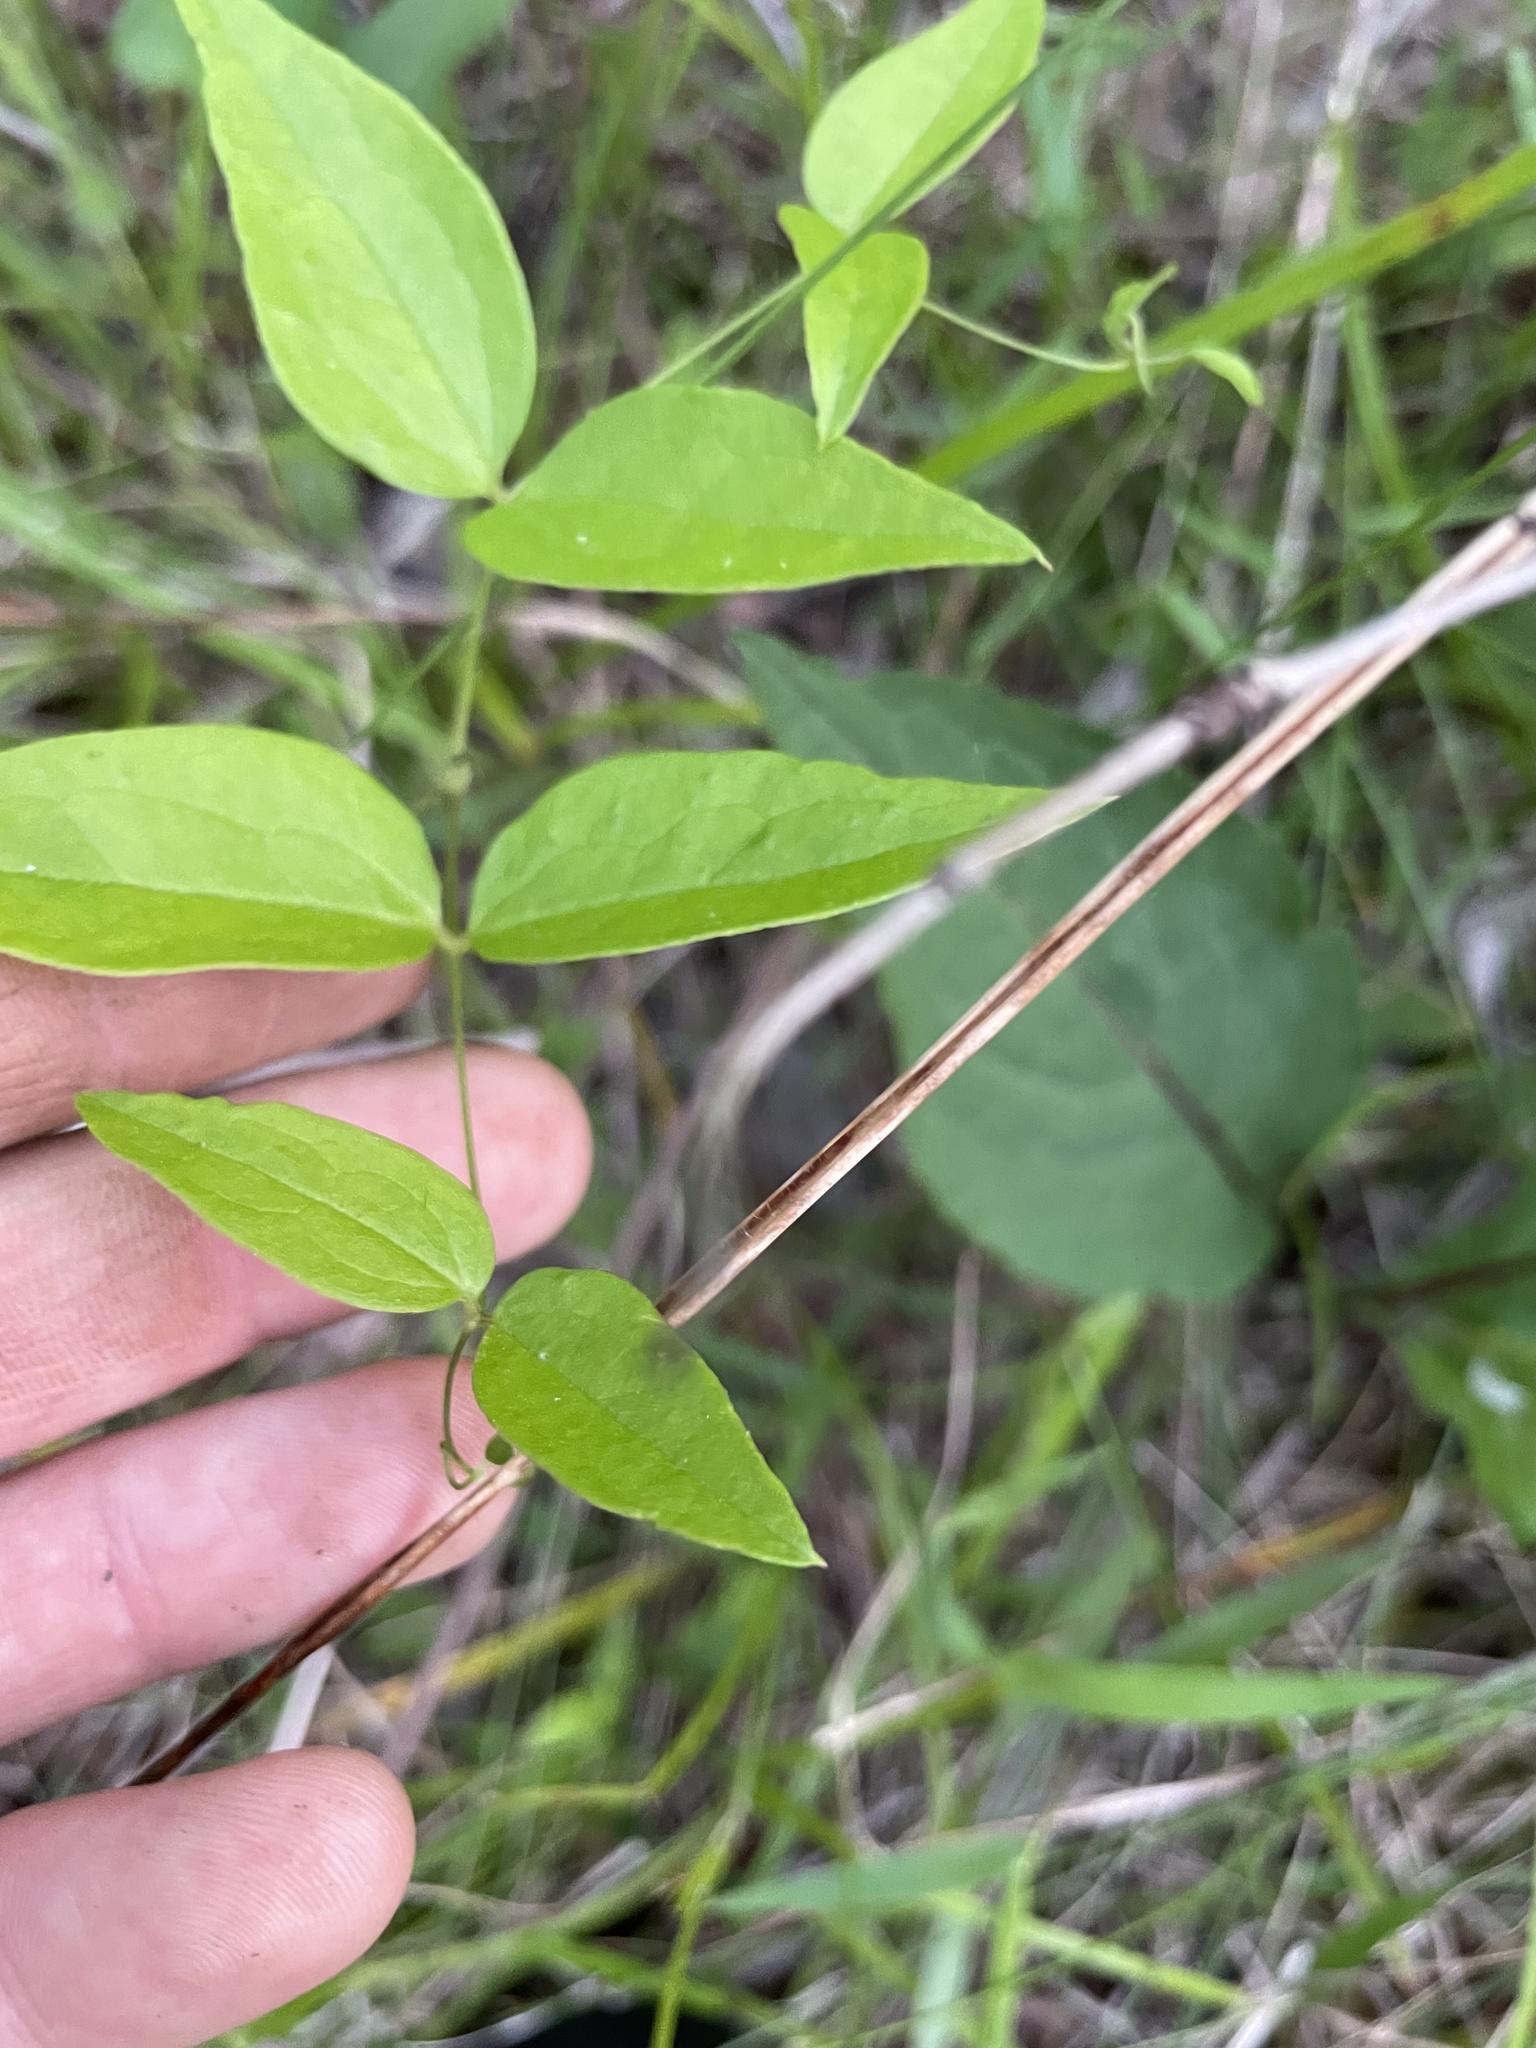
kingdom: Plantae
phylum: Tracheophyta
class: Magnoliopsida
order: Ranunculales
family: Ranunculaceae
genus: Clematis
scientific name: Clematis viorna
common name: Leather-flower
